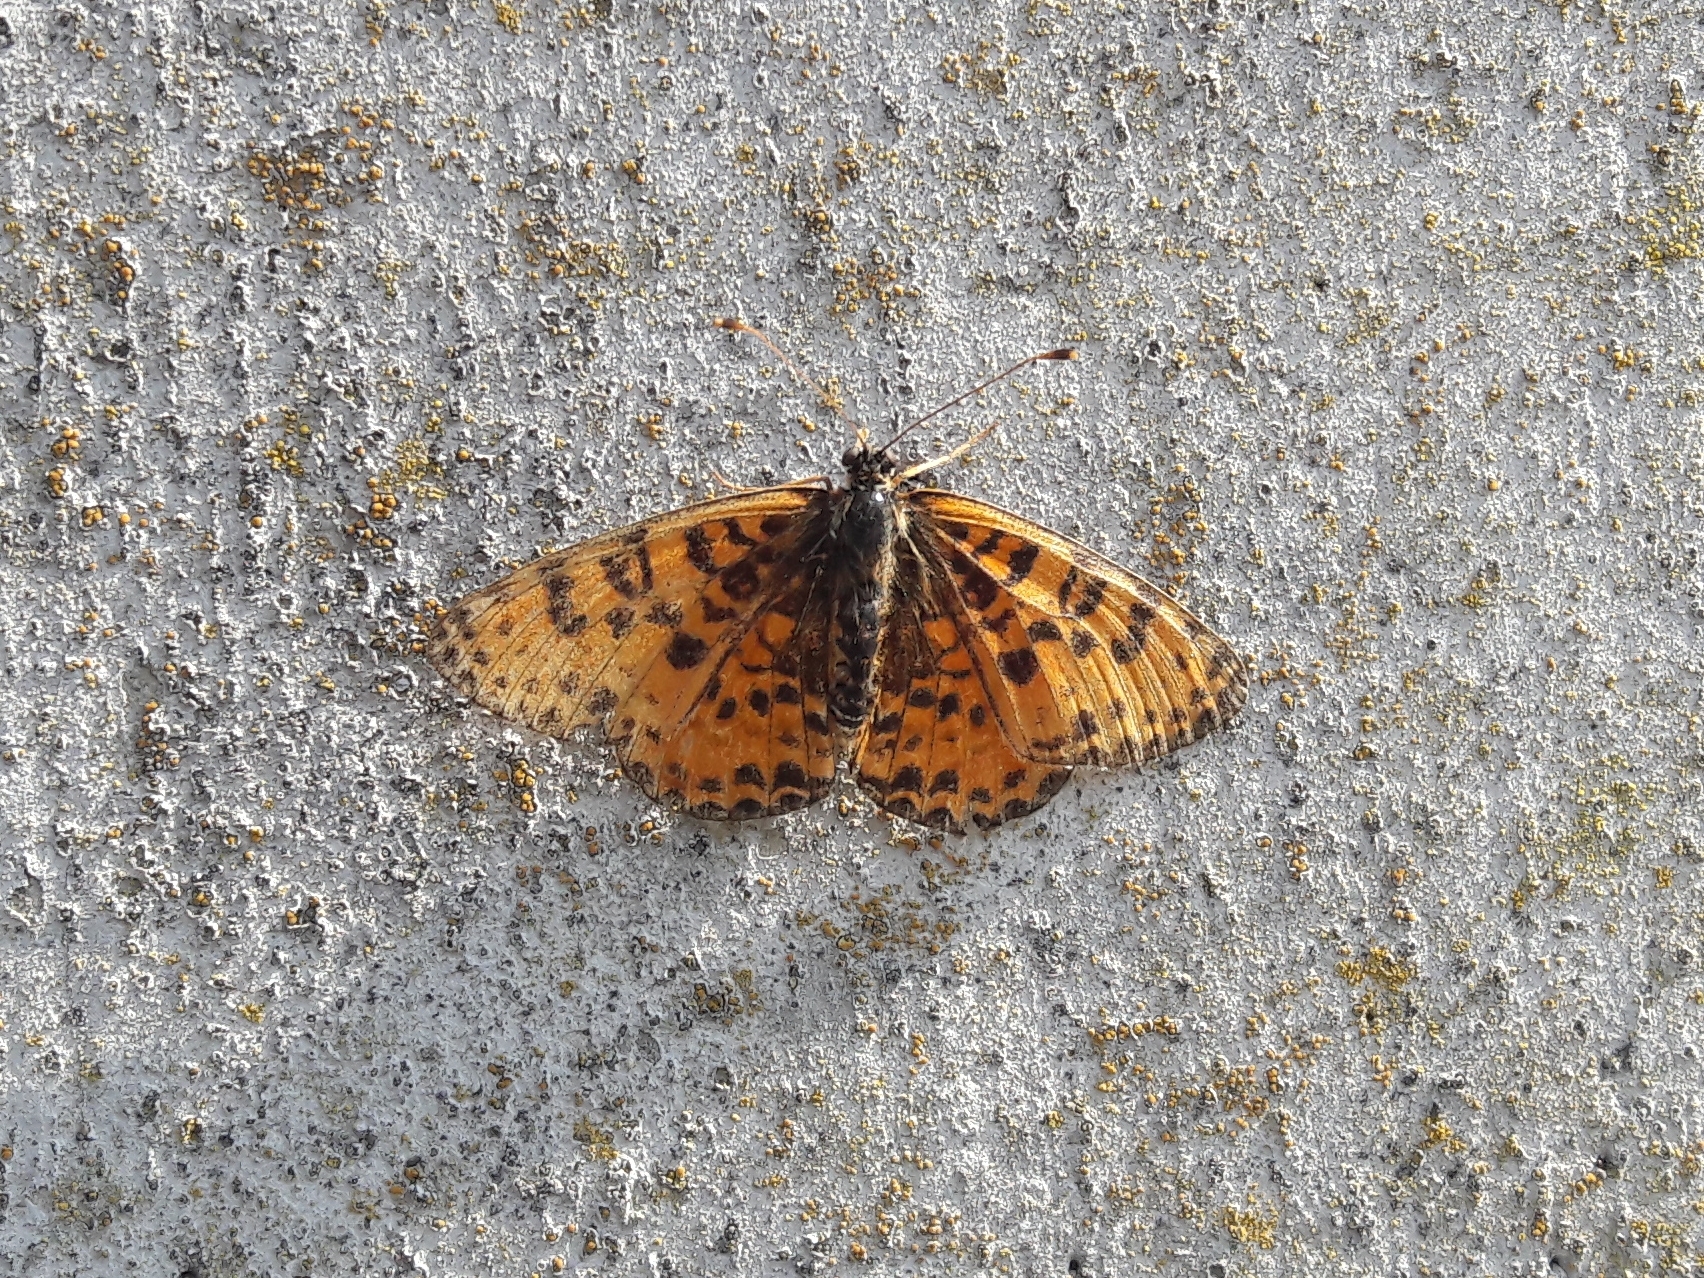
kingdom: Animalia
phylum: Arthropoda
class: Insecta
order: Lepidoptera
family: Nymphalidae
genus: Melitaea
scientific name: Melitaea didyma
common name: Spotted fritillary
